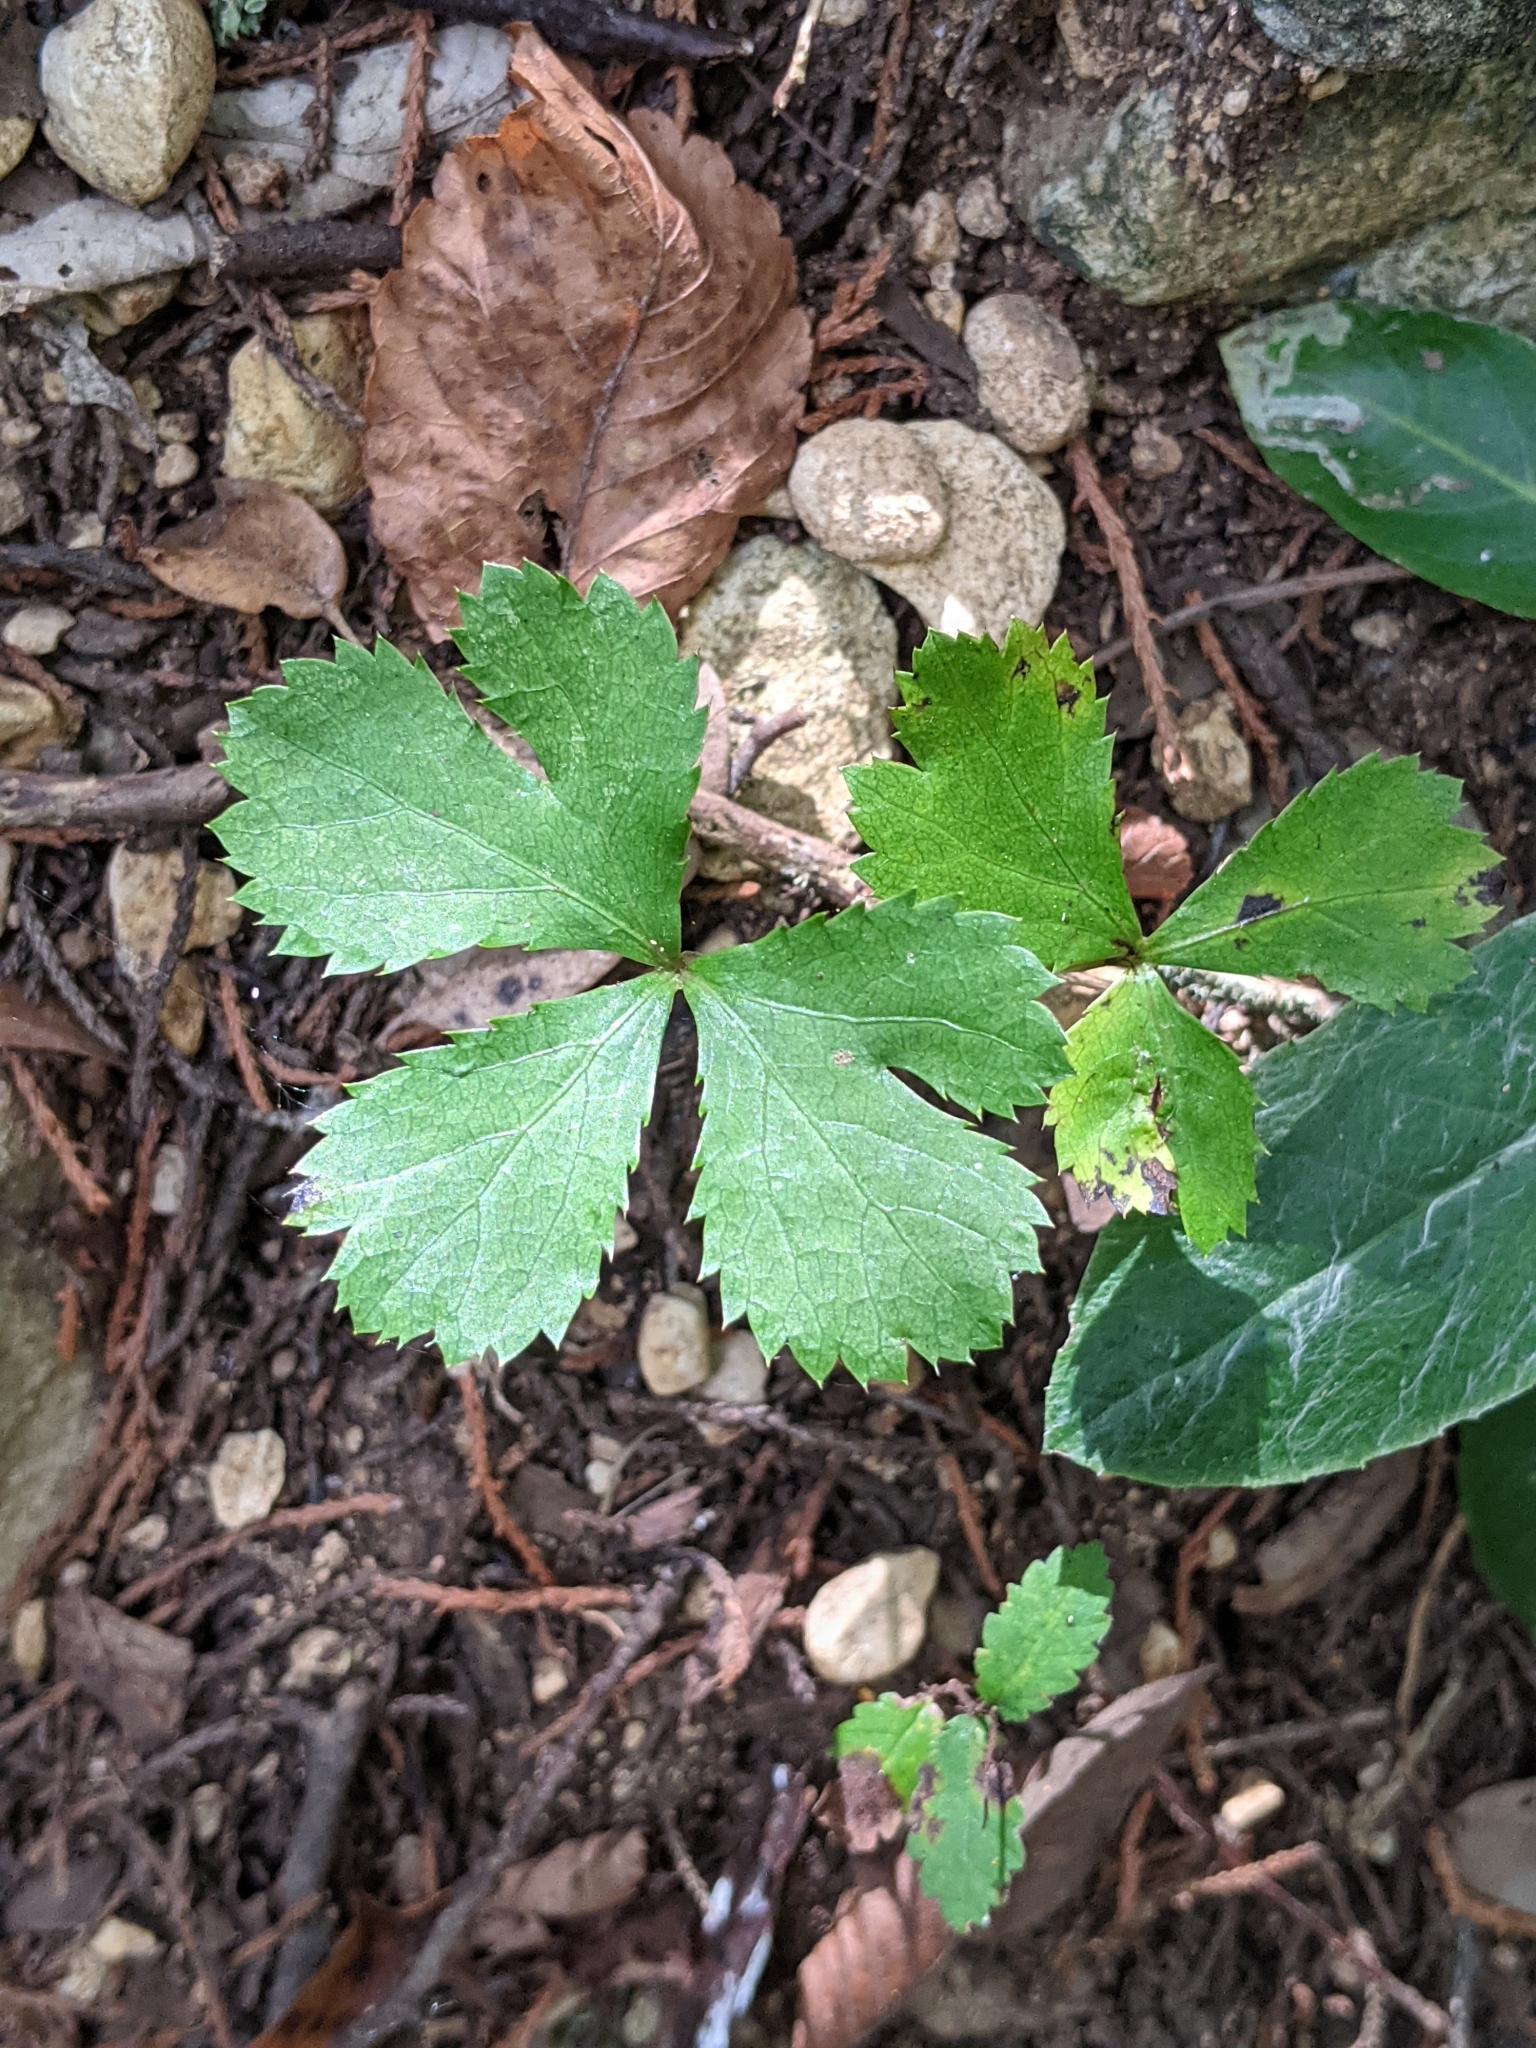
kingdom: Plantae
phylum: Tracheophyta
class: Magnoliopsida
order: Apiales
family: Apiaceae
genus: Sanicula
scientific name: Sanicula canadensis
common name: Canada sanicle
